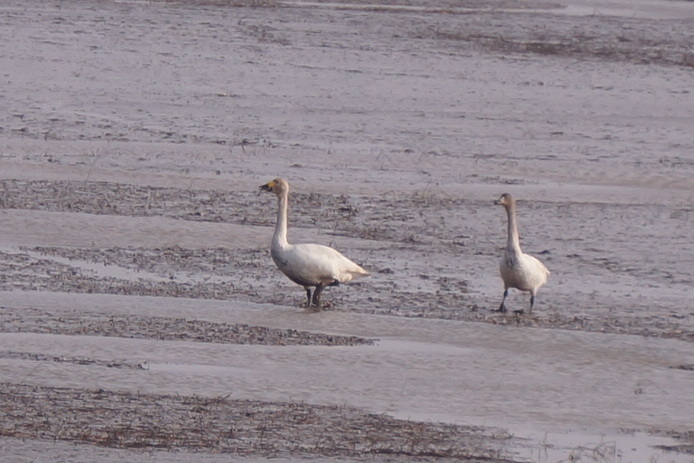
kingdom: Animalia
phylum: Chordata
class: Aves
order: Anseriformes
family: Anatidae
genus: Cygnus
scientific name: Cygnus columbianus
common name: Tundra swan
